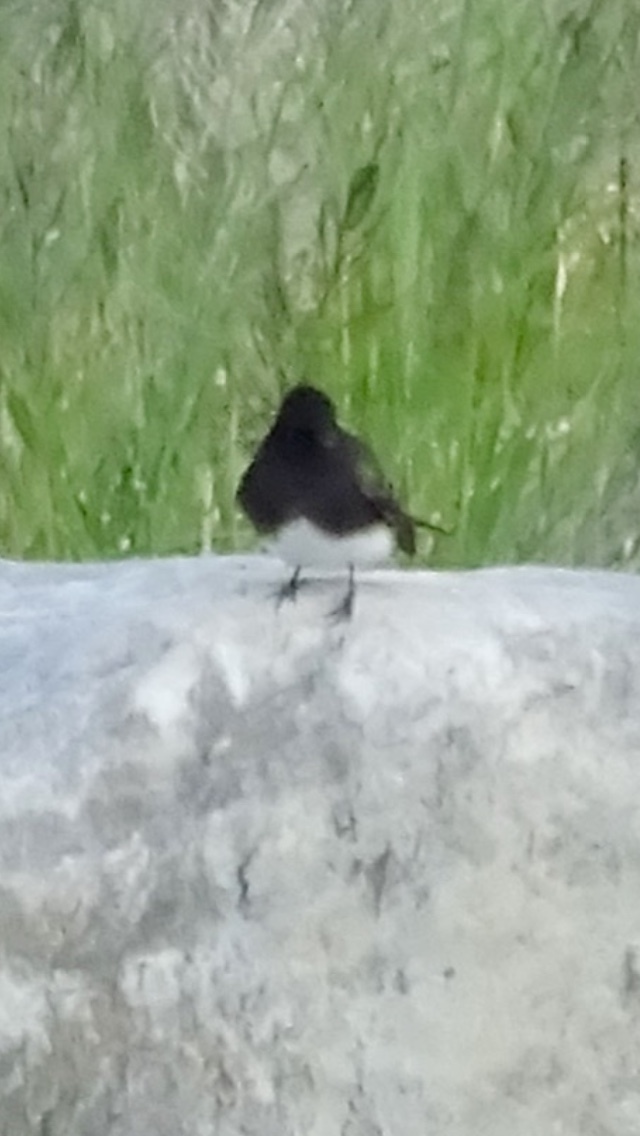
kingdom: Animalia
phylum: Chordata
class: Aves
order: Passeriformes
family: Tyrannidae
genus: Sayornis
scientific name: Sayornis nigricans
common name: Black phoebe
